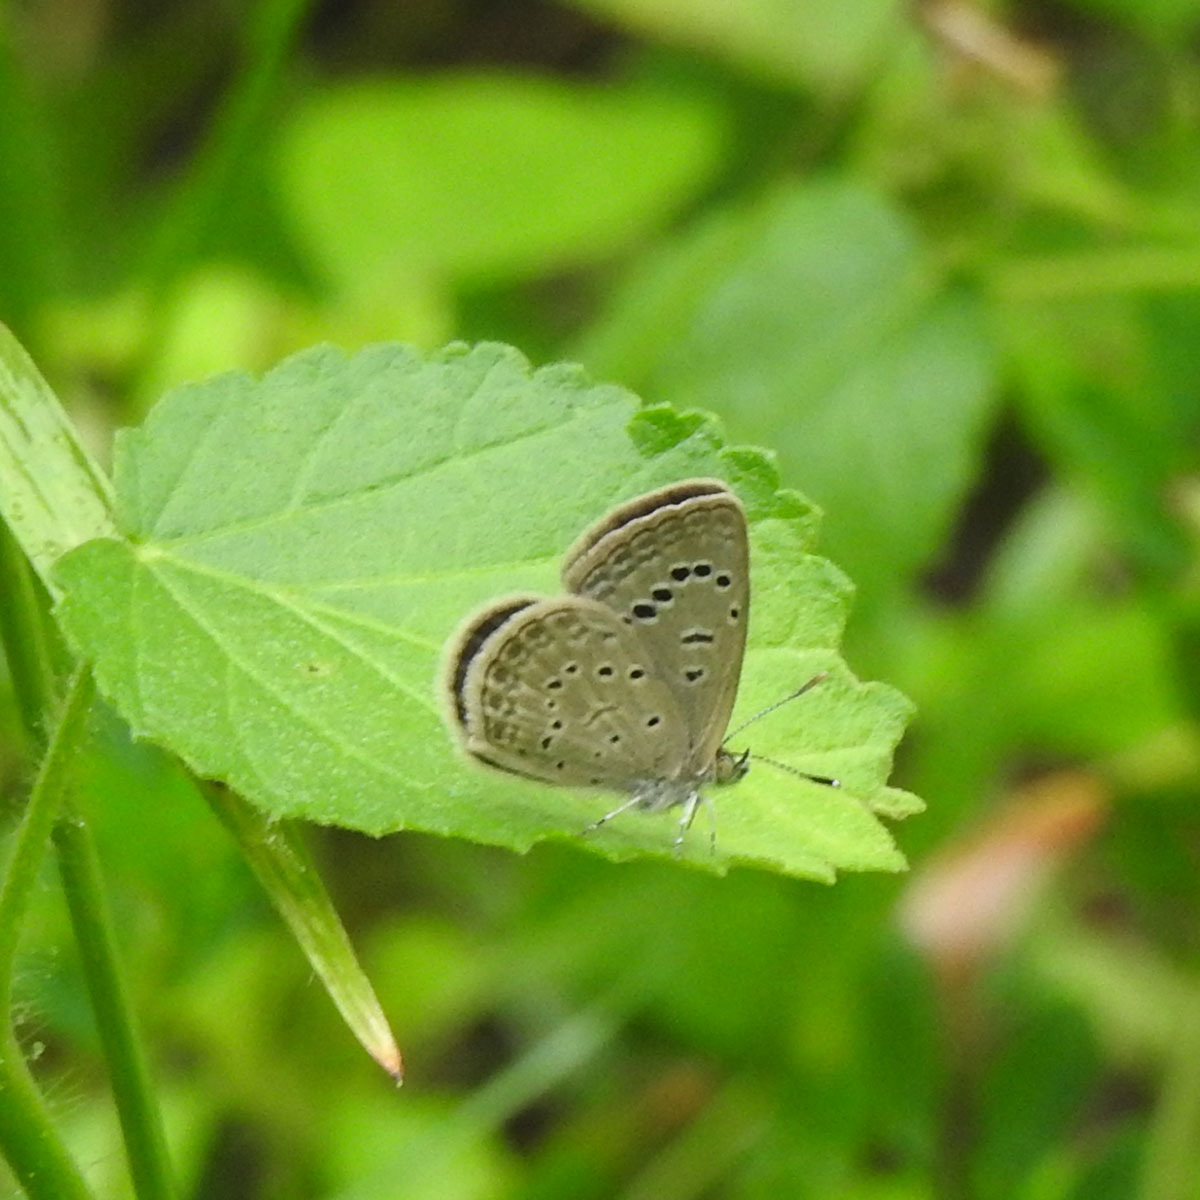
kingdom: Animalia
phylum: Arthropoda
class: Insecta
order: Lepidoptera
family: Lycaenidae
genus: Zizeeria
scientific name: Zizeeria karsandra
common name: Dark grass blue
